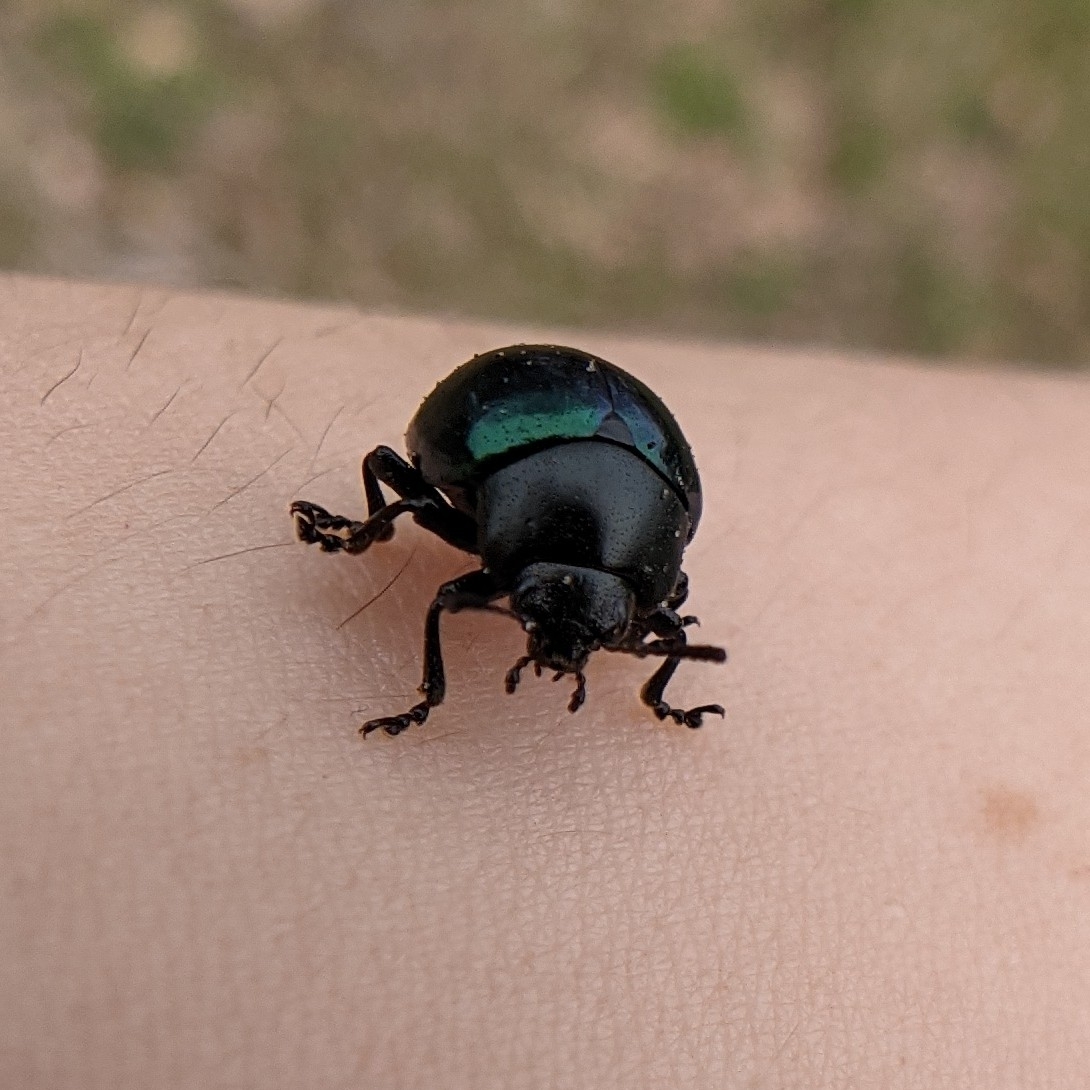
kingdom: Animalia
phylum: Arthropoda
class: Insecta
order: Coleoptera
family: Chrysomelidae
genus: Leptinotarsa
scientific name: Leptinotarsa haldemani
